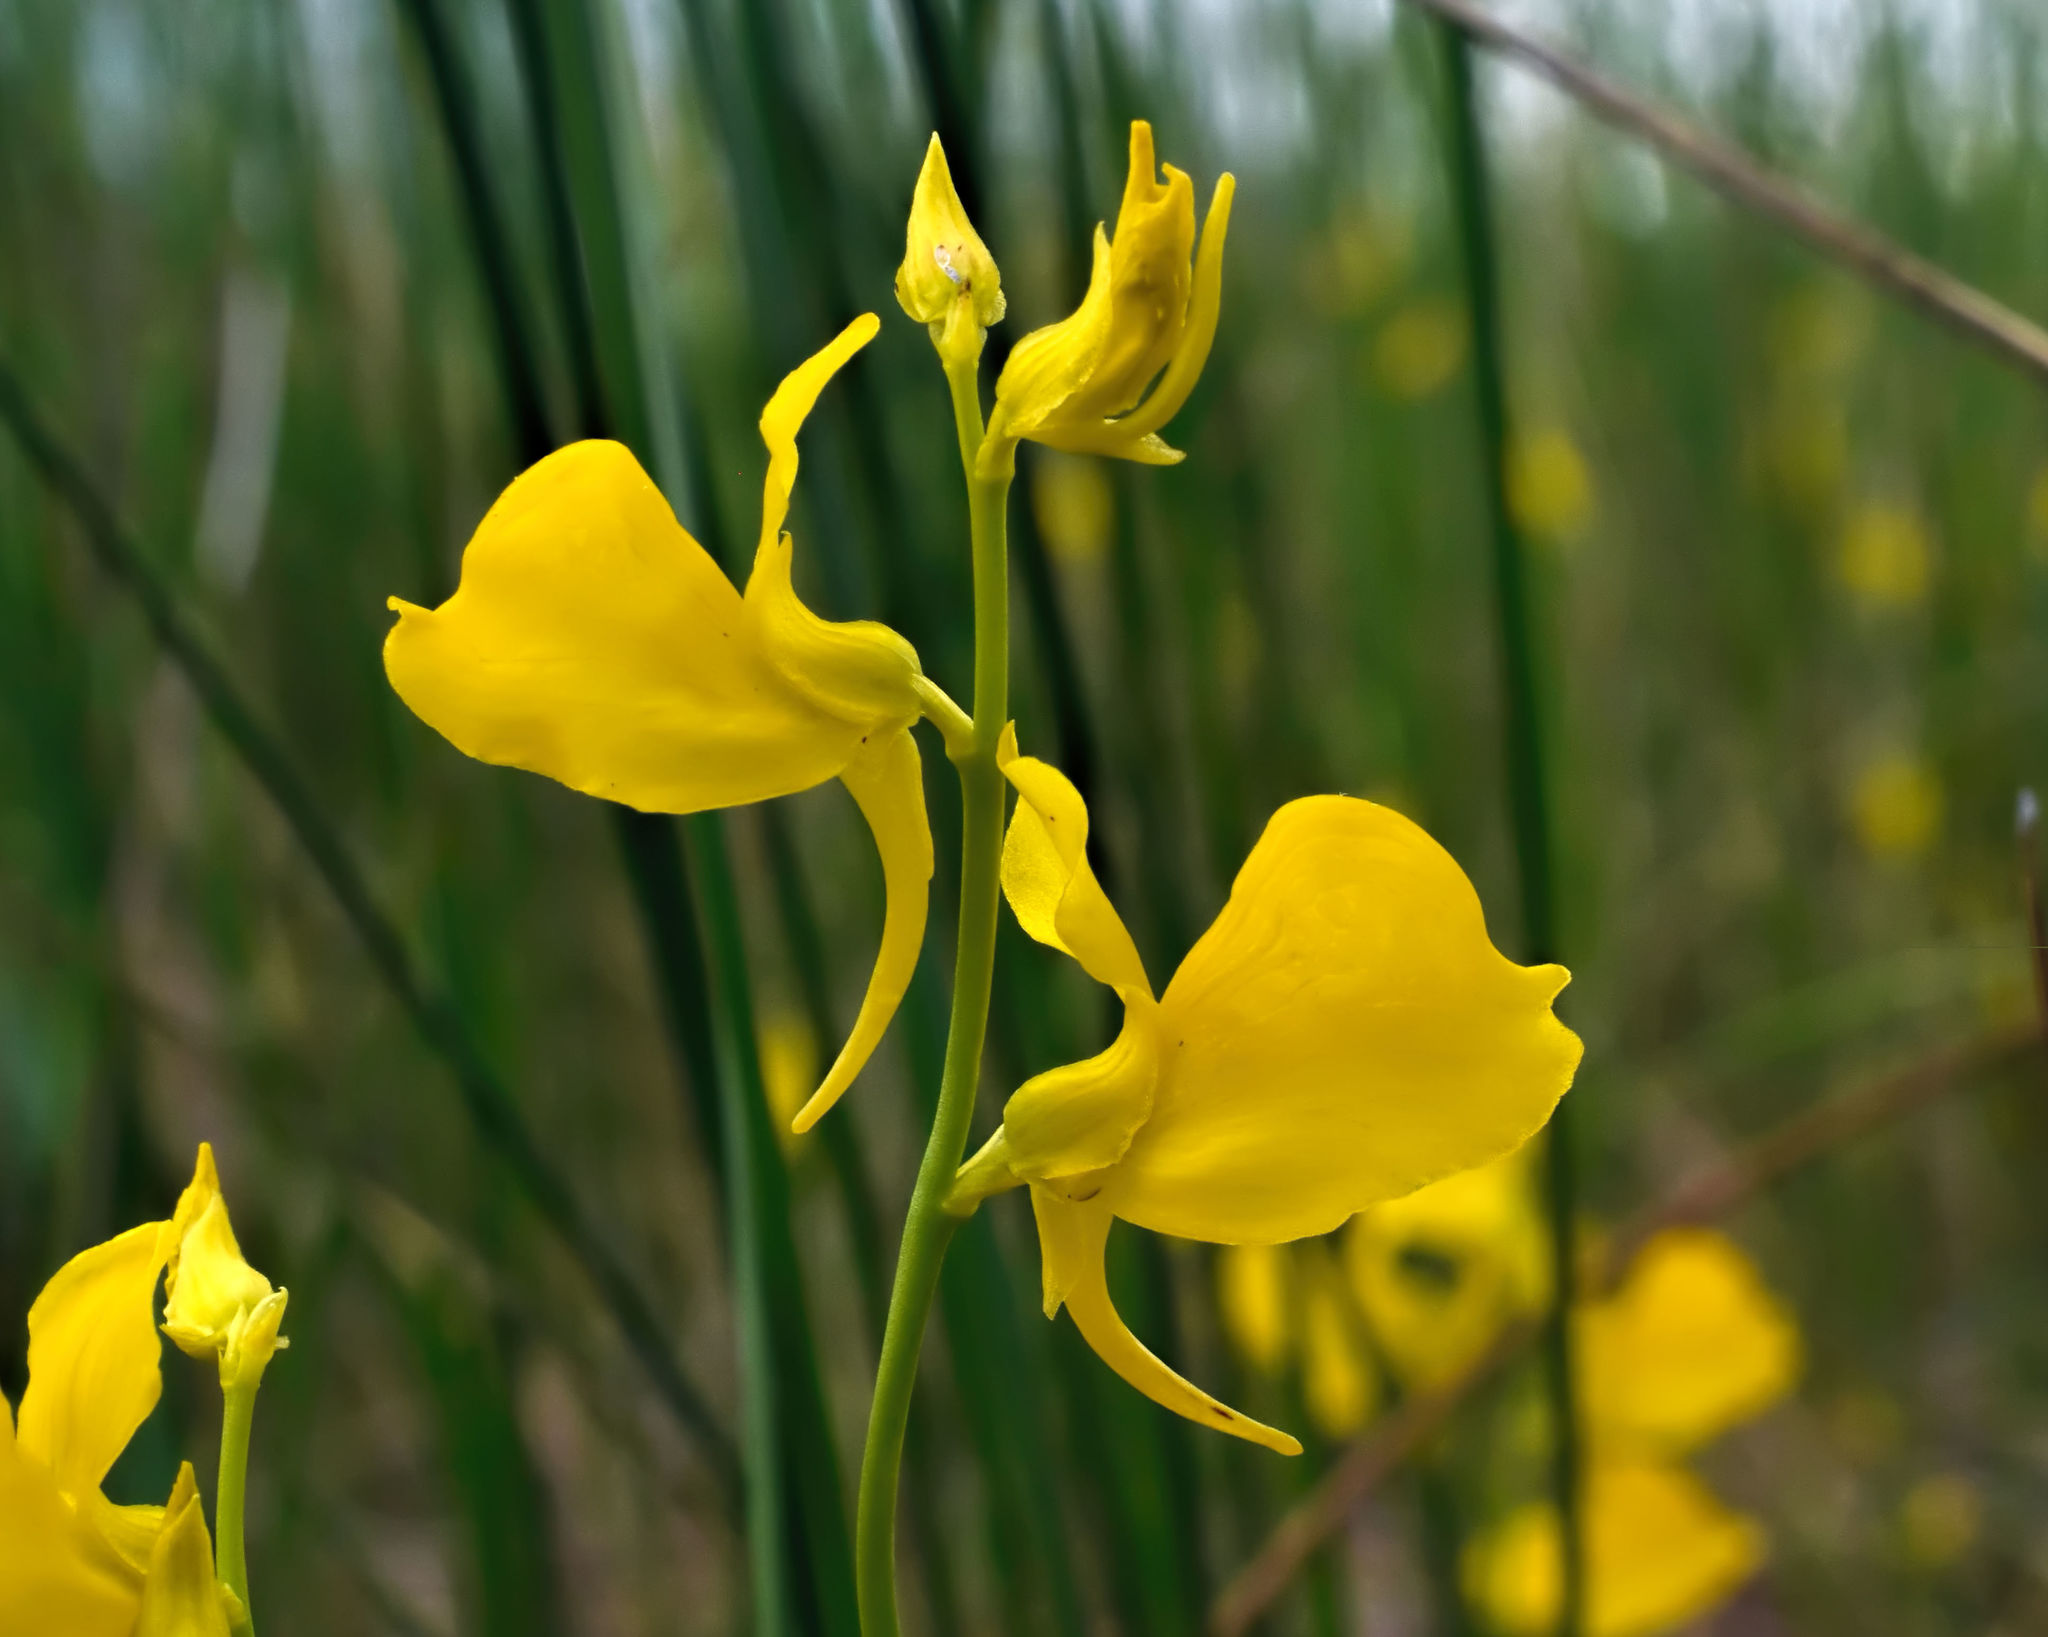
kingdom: Plantae
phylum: Tracheophyta
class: Magnoliopsida
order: Lamiales
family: Lentibulariaceae
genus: Utricularia
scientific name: Utricularia cornuta
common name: Horned bladderwort
